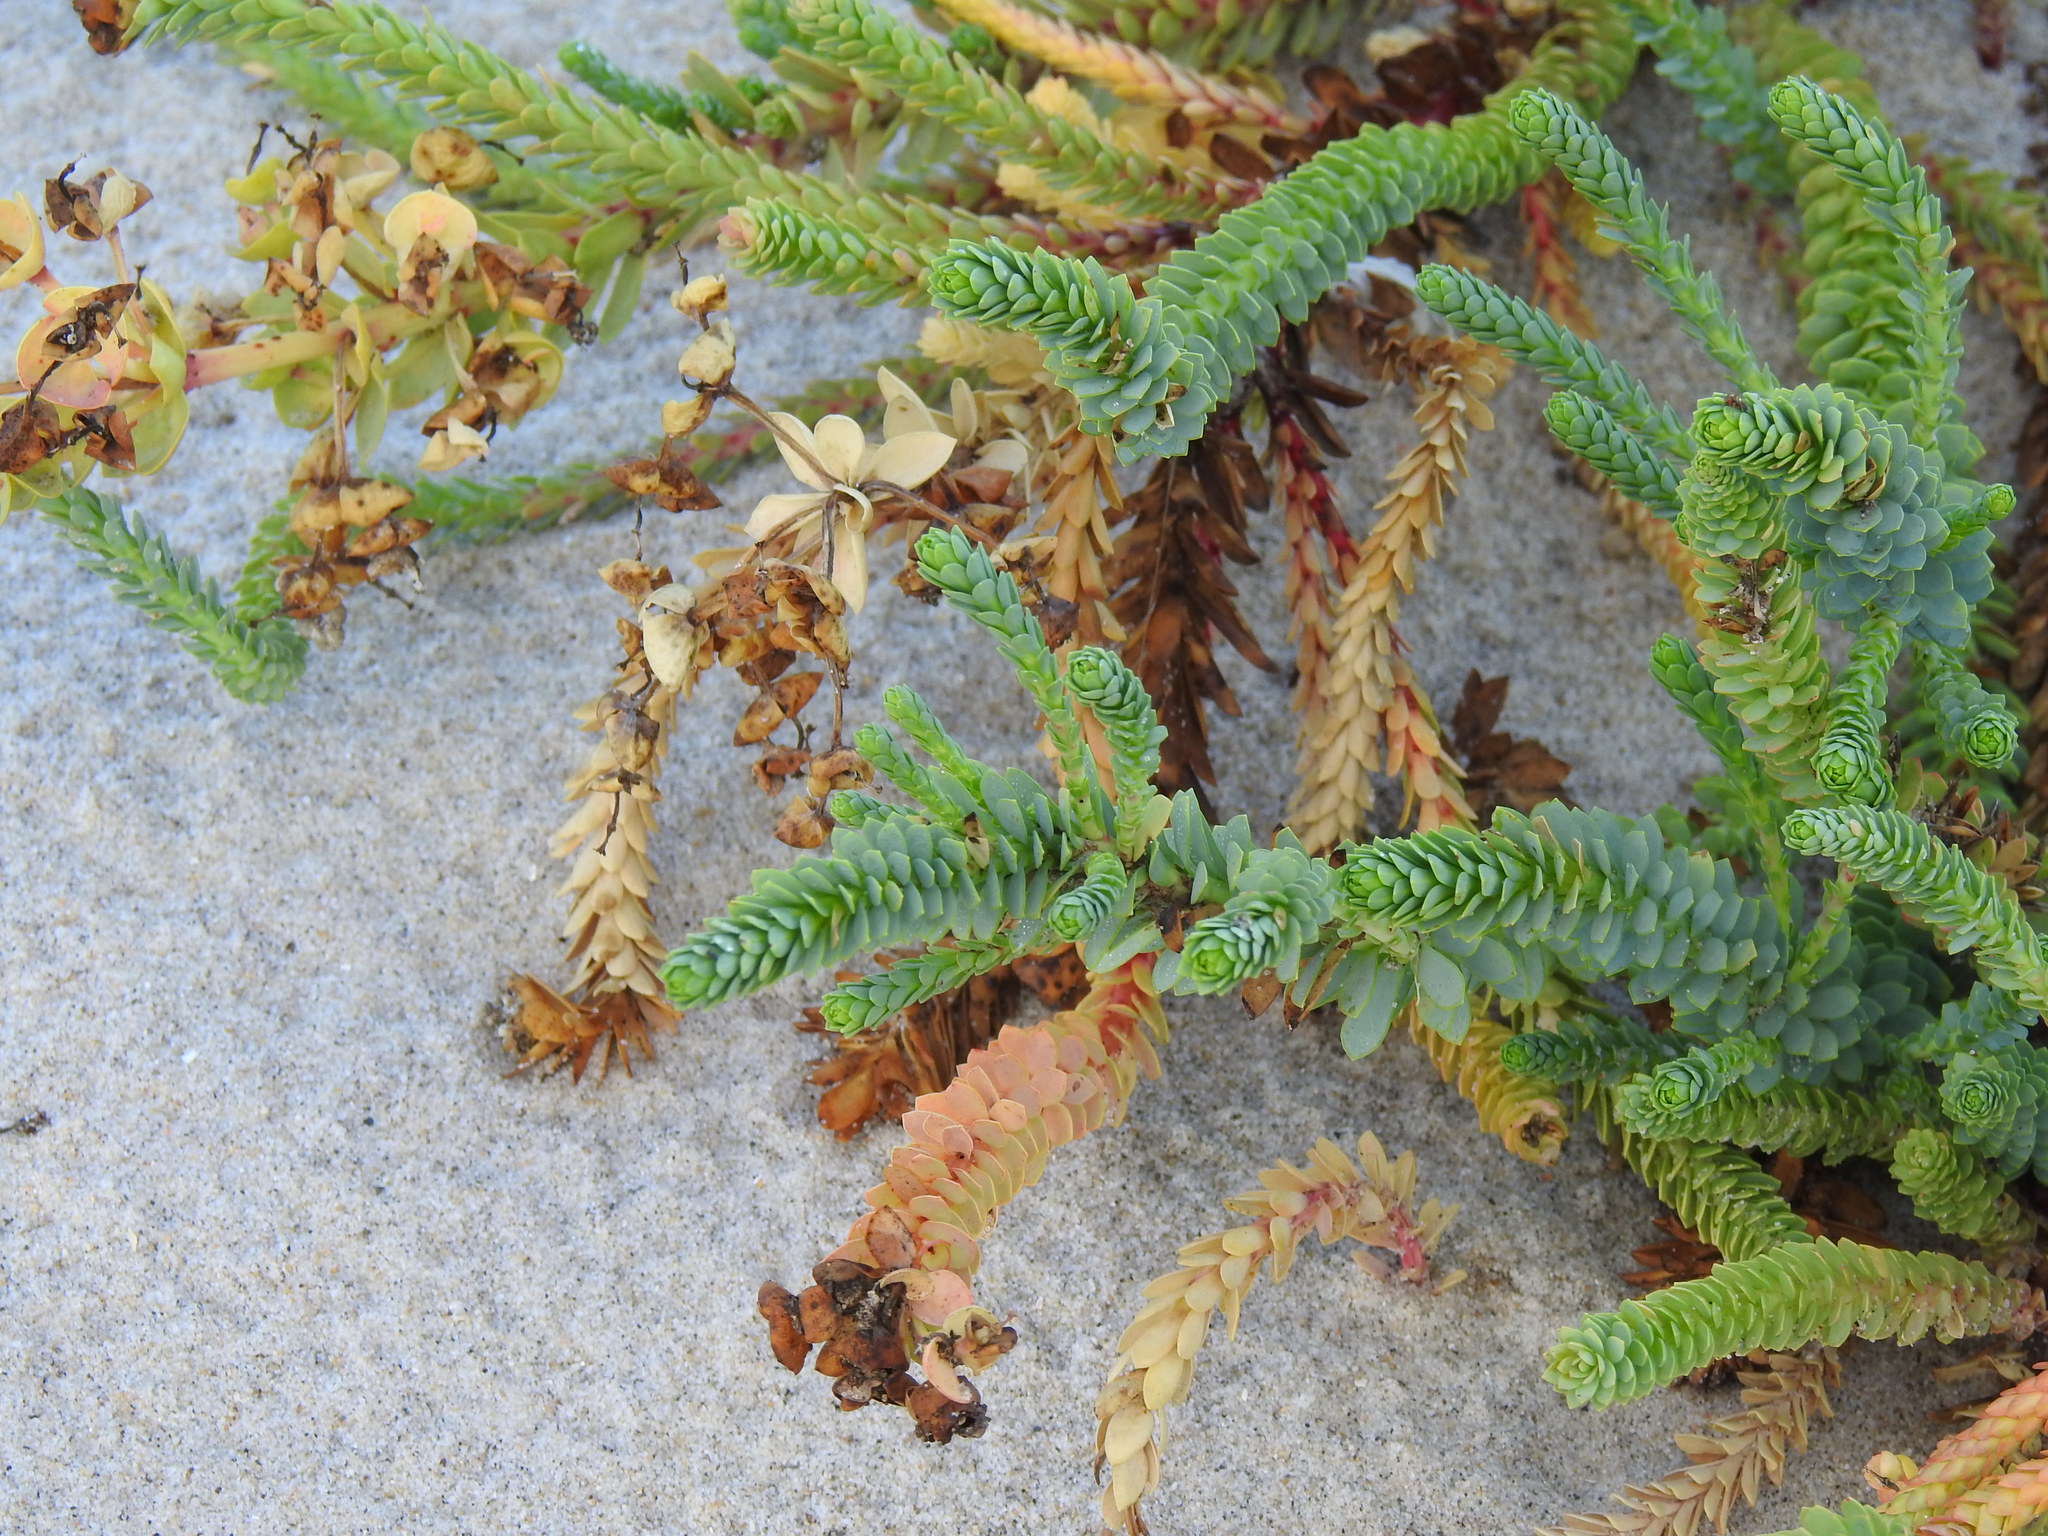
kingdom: Plantae
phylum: Tracheophyta
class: Magnoliopsida
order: Malpighiales
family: Euphorbiaceae
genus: Euphorbia
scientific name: Euphorbia paralias
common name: Sea spurge
